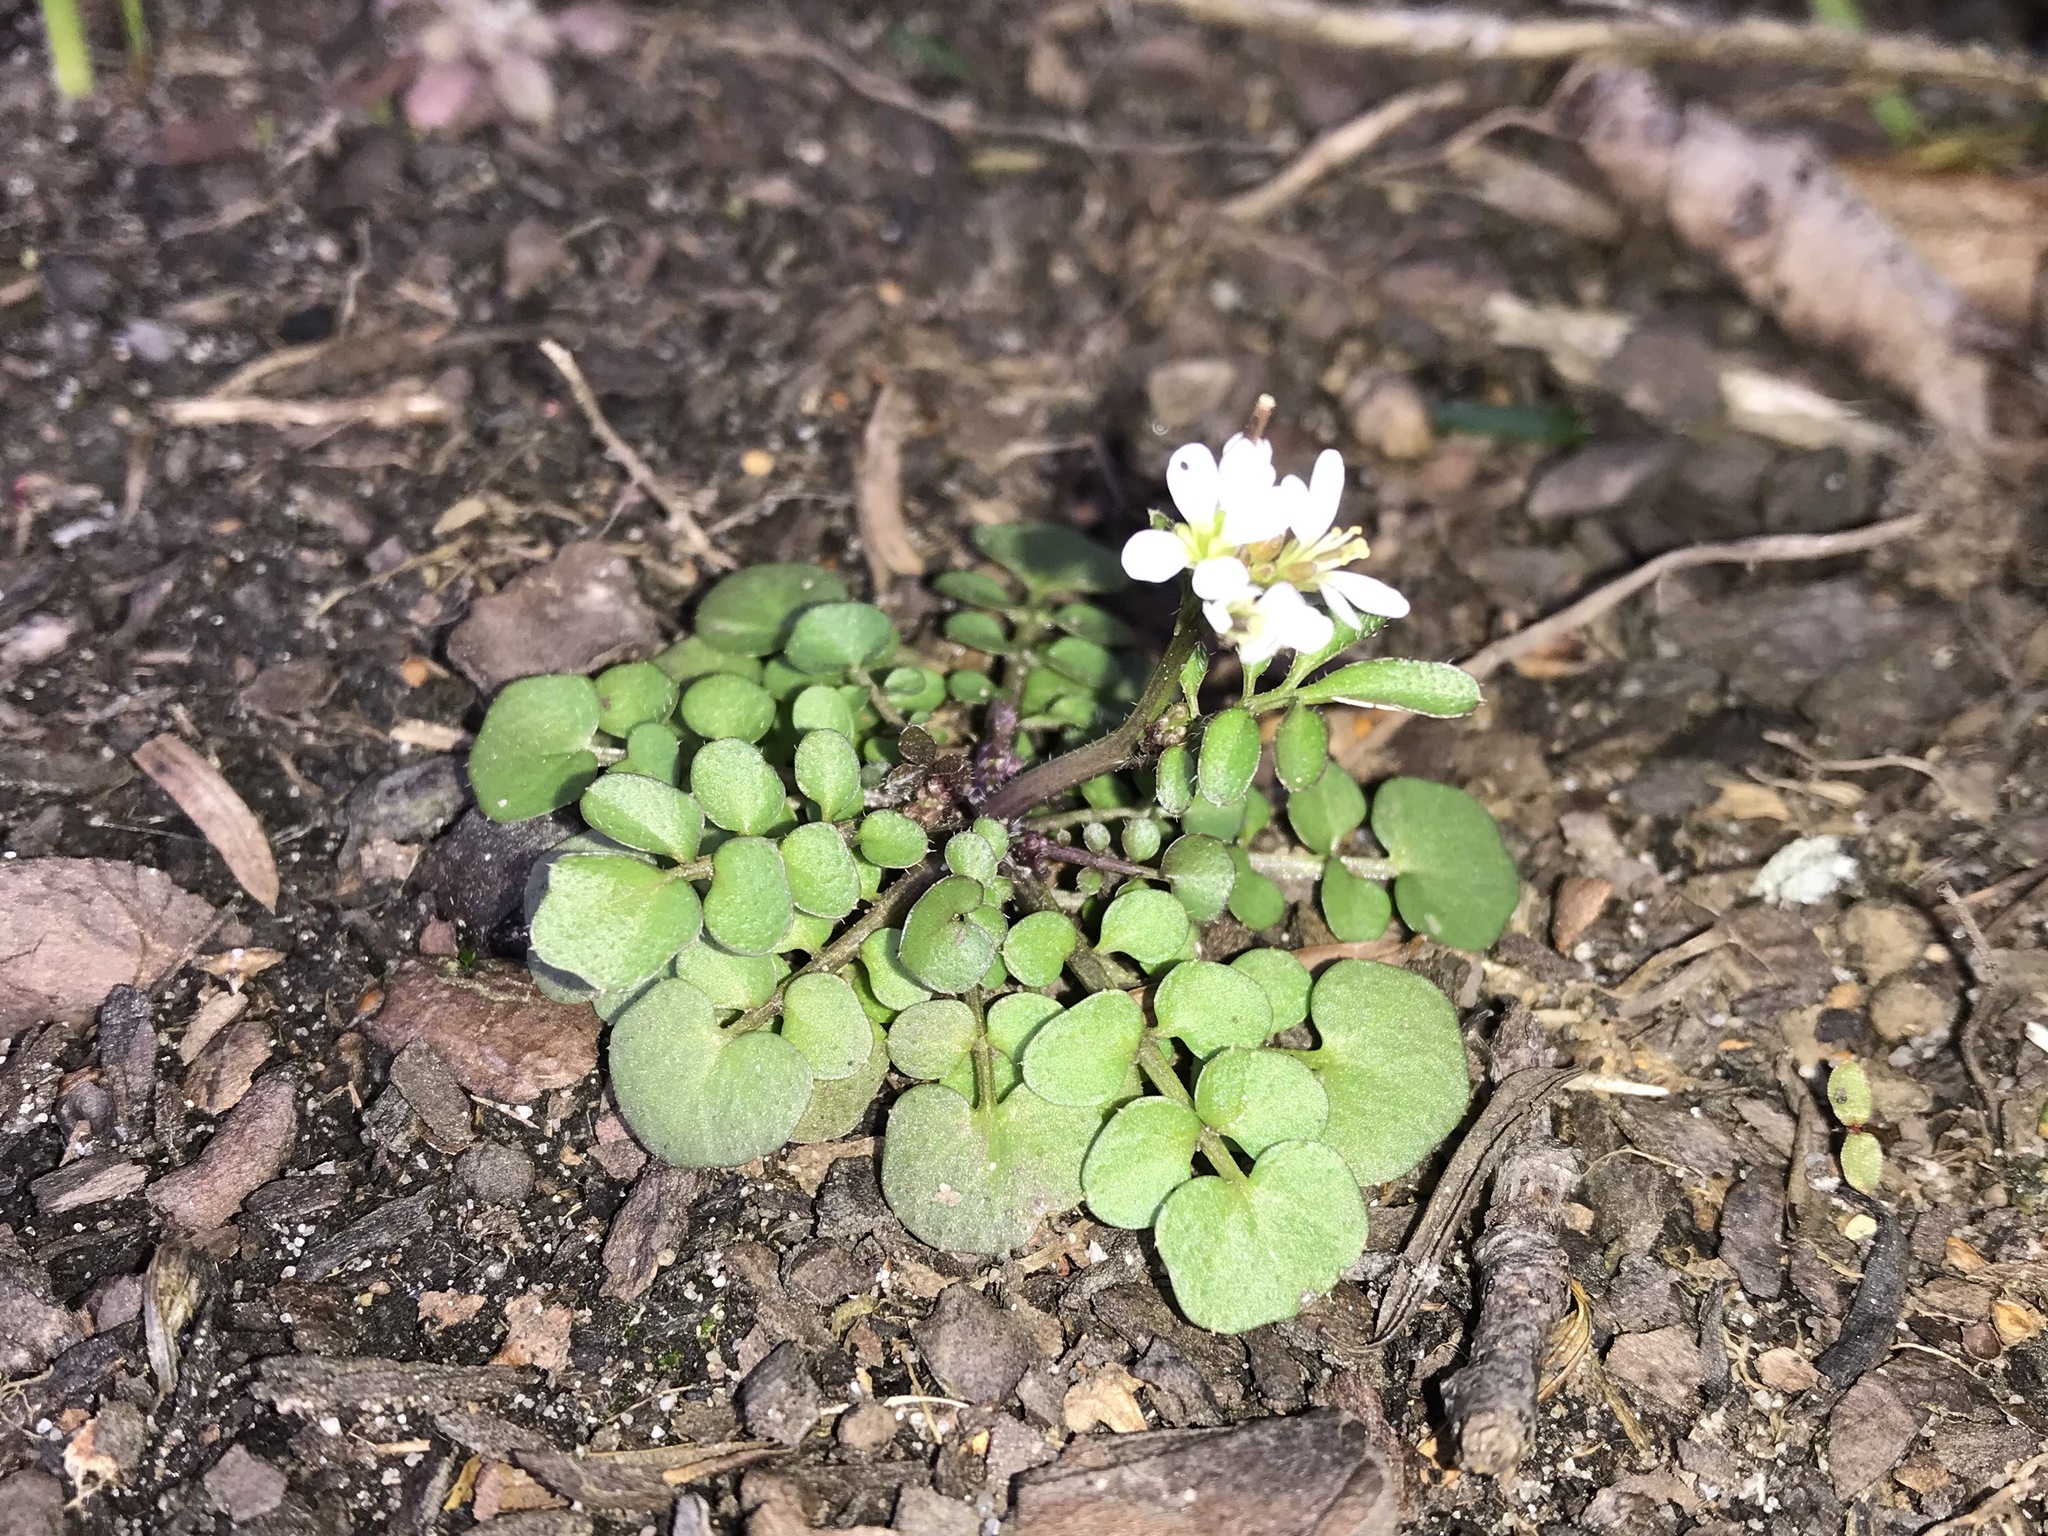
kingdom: Plantae
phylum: Tracheophyta
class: Magnoliopsida
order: Brassicales
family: Brassicaceae
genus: Cardamine
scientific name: Cardamine hirsuta
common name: Hairy bittercress
